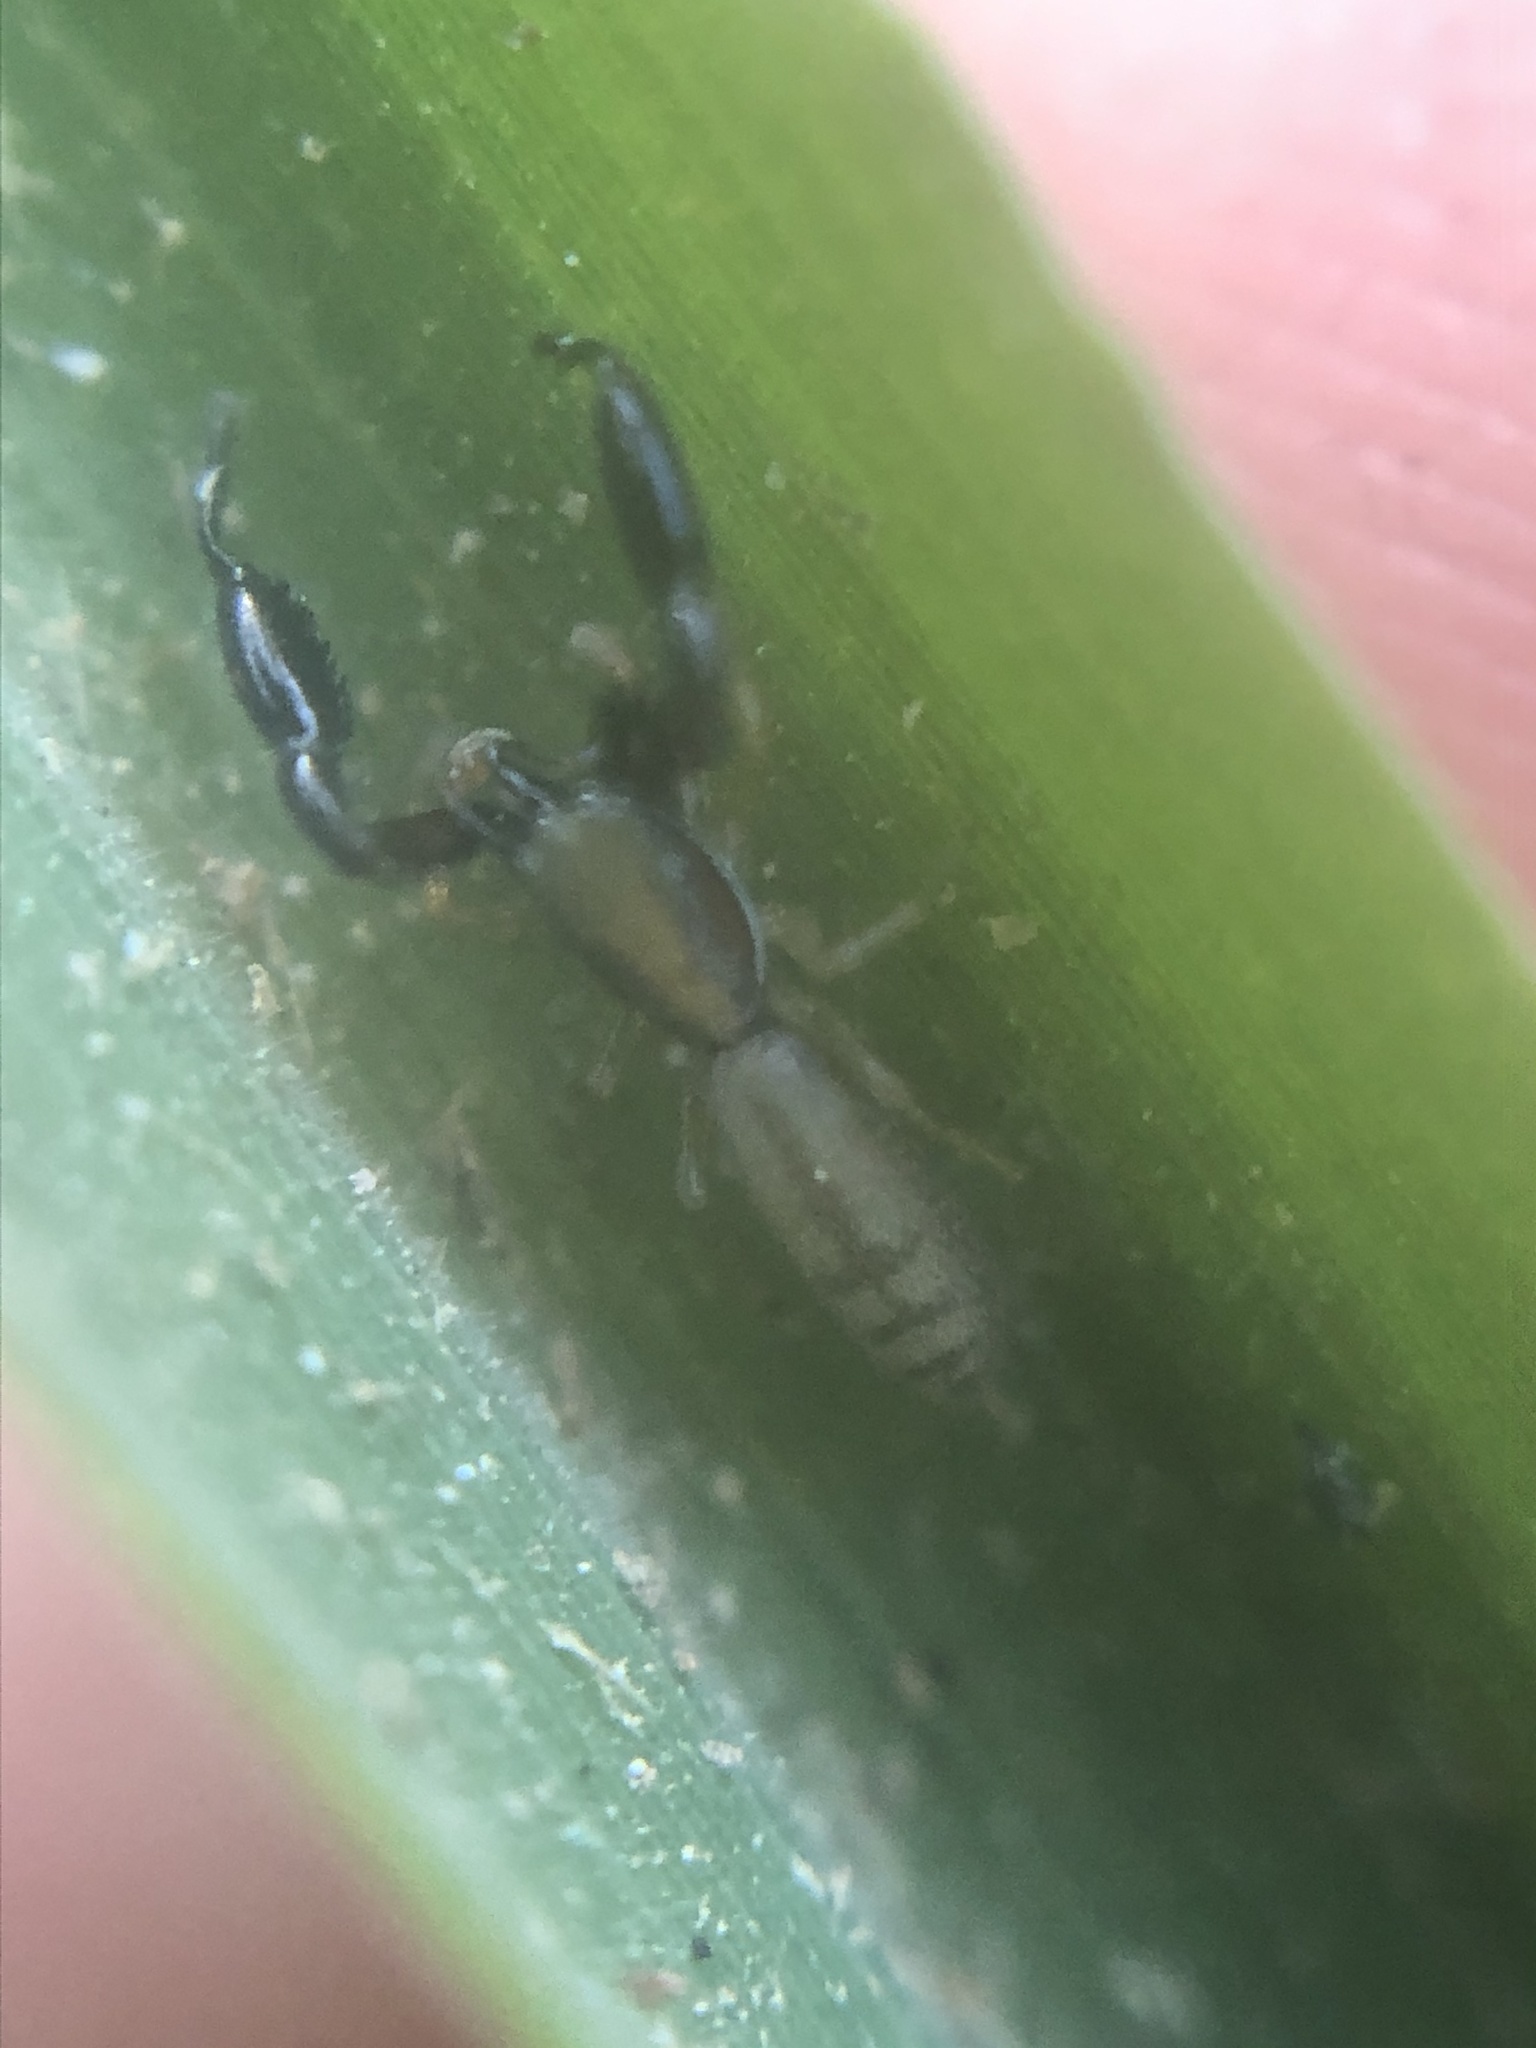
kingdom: Animalia
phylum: Arthropoda
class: Arachnida
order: Araneae
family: Salticidae
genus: Cheliferoides
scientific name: Cheliferoides longimanus
